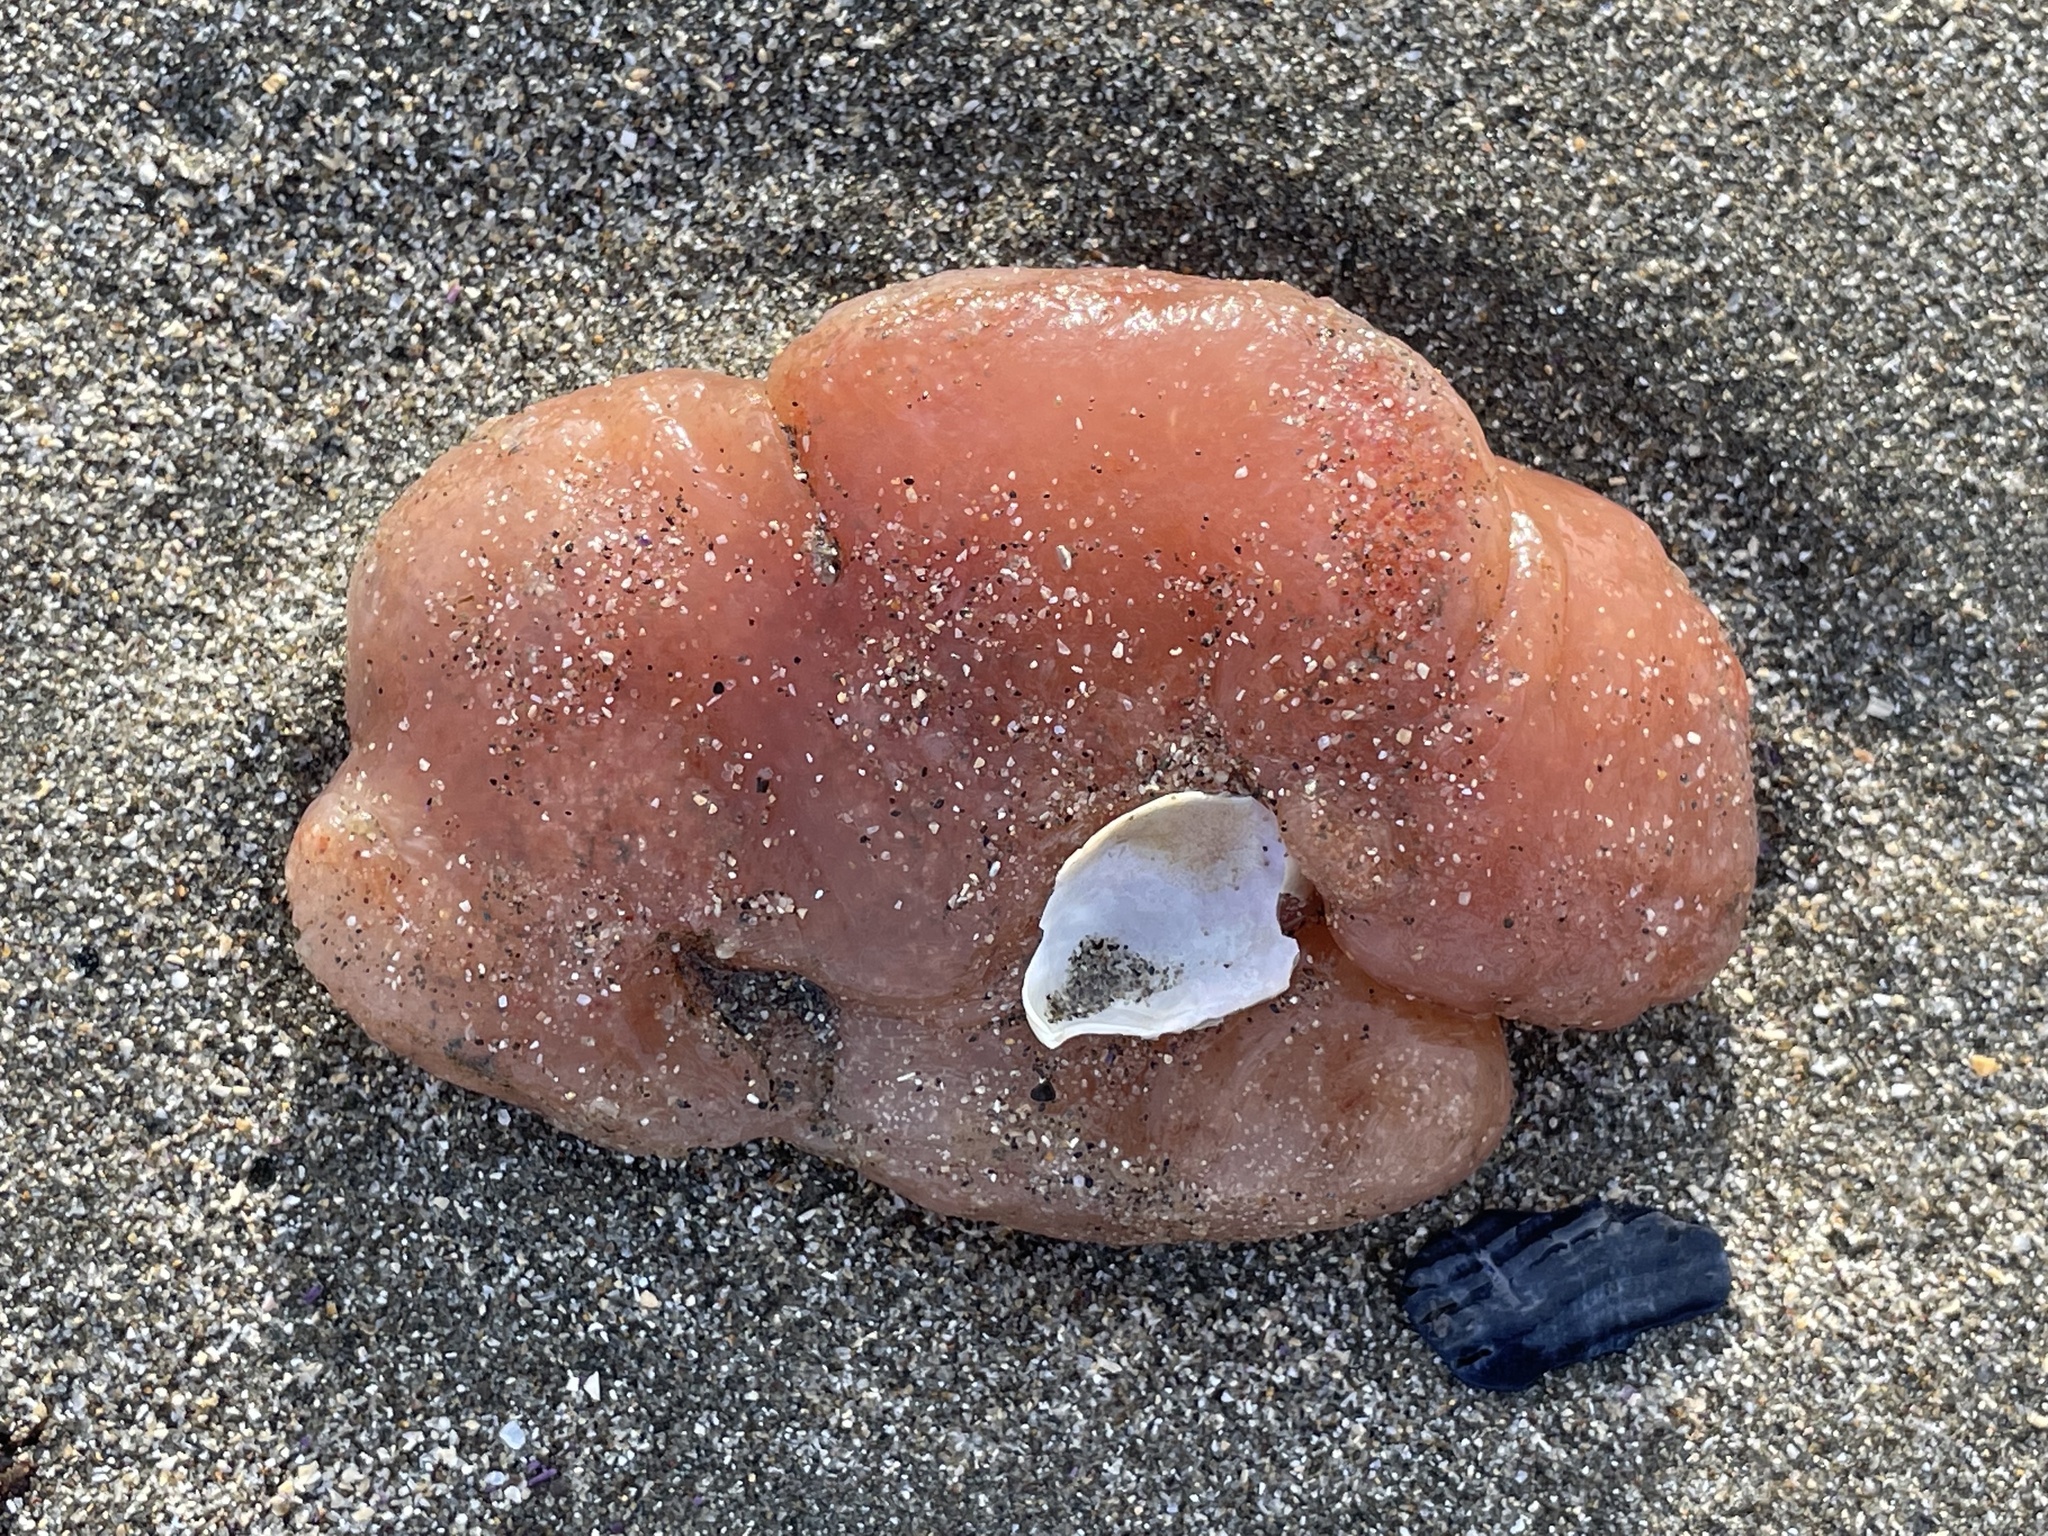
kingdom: Animalia
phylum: Chordata
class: Ascidiacea
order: Aplousobranchia
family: Polyclinidae
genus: Aplidium
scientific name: Aplidium californicum
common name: Sea pork
